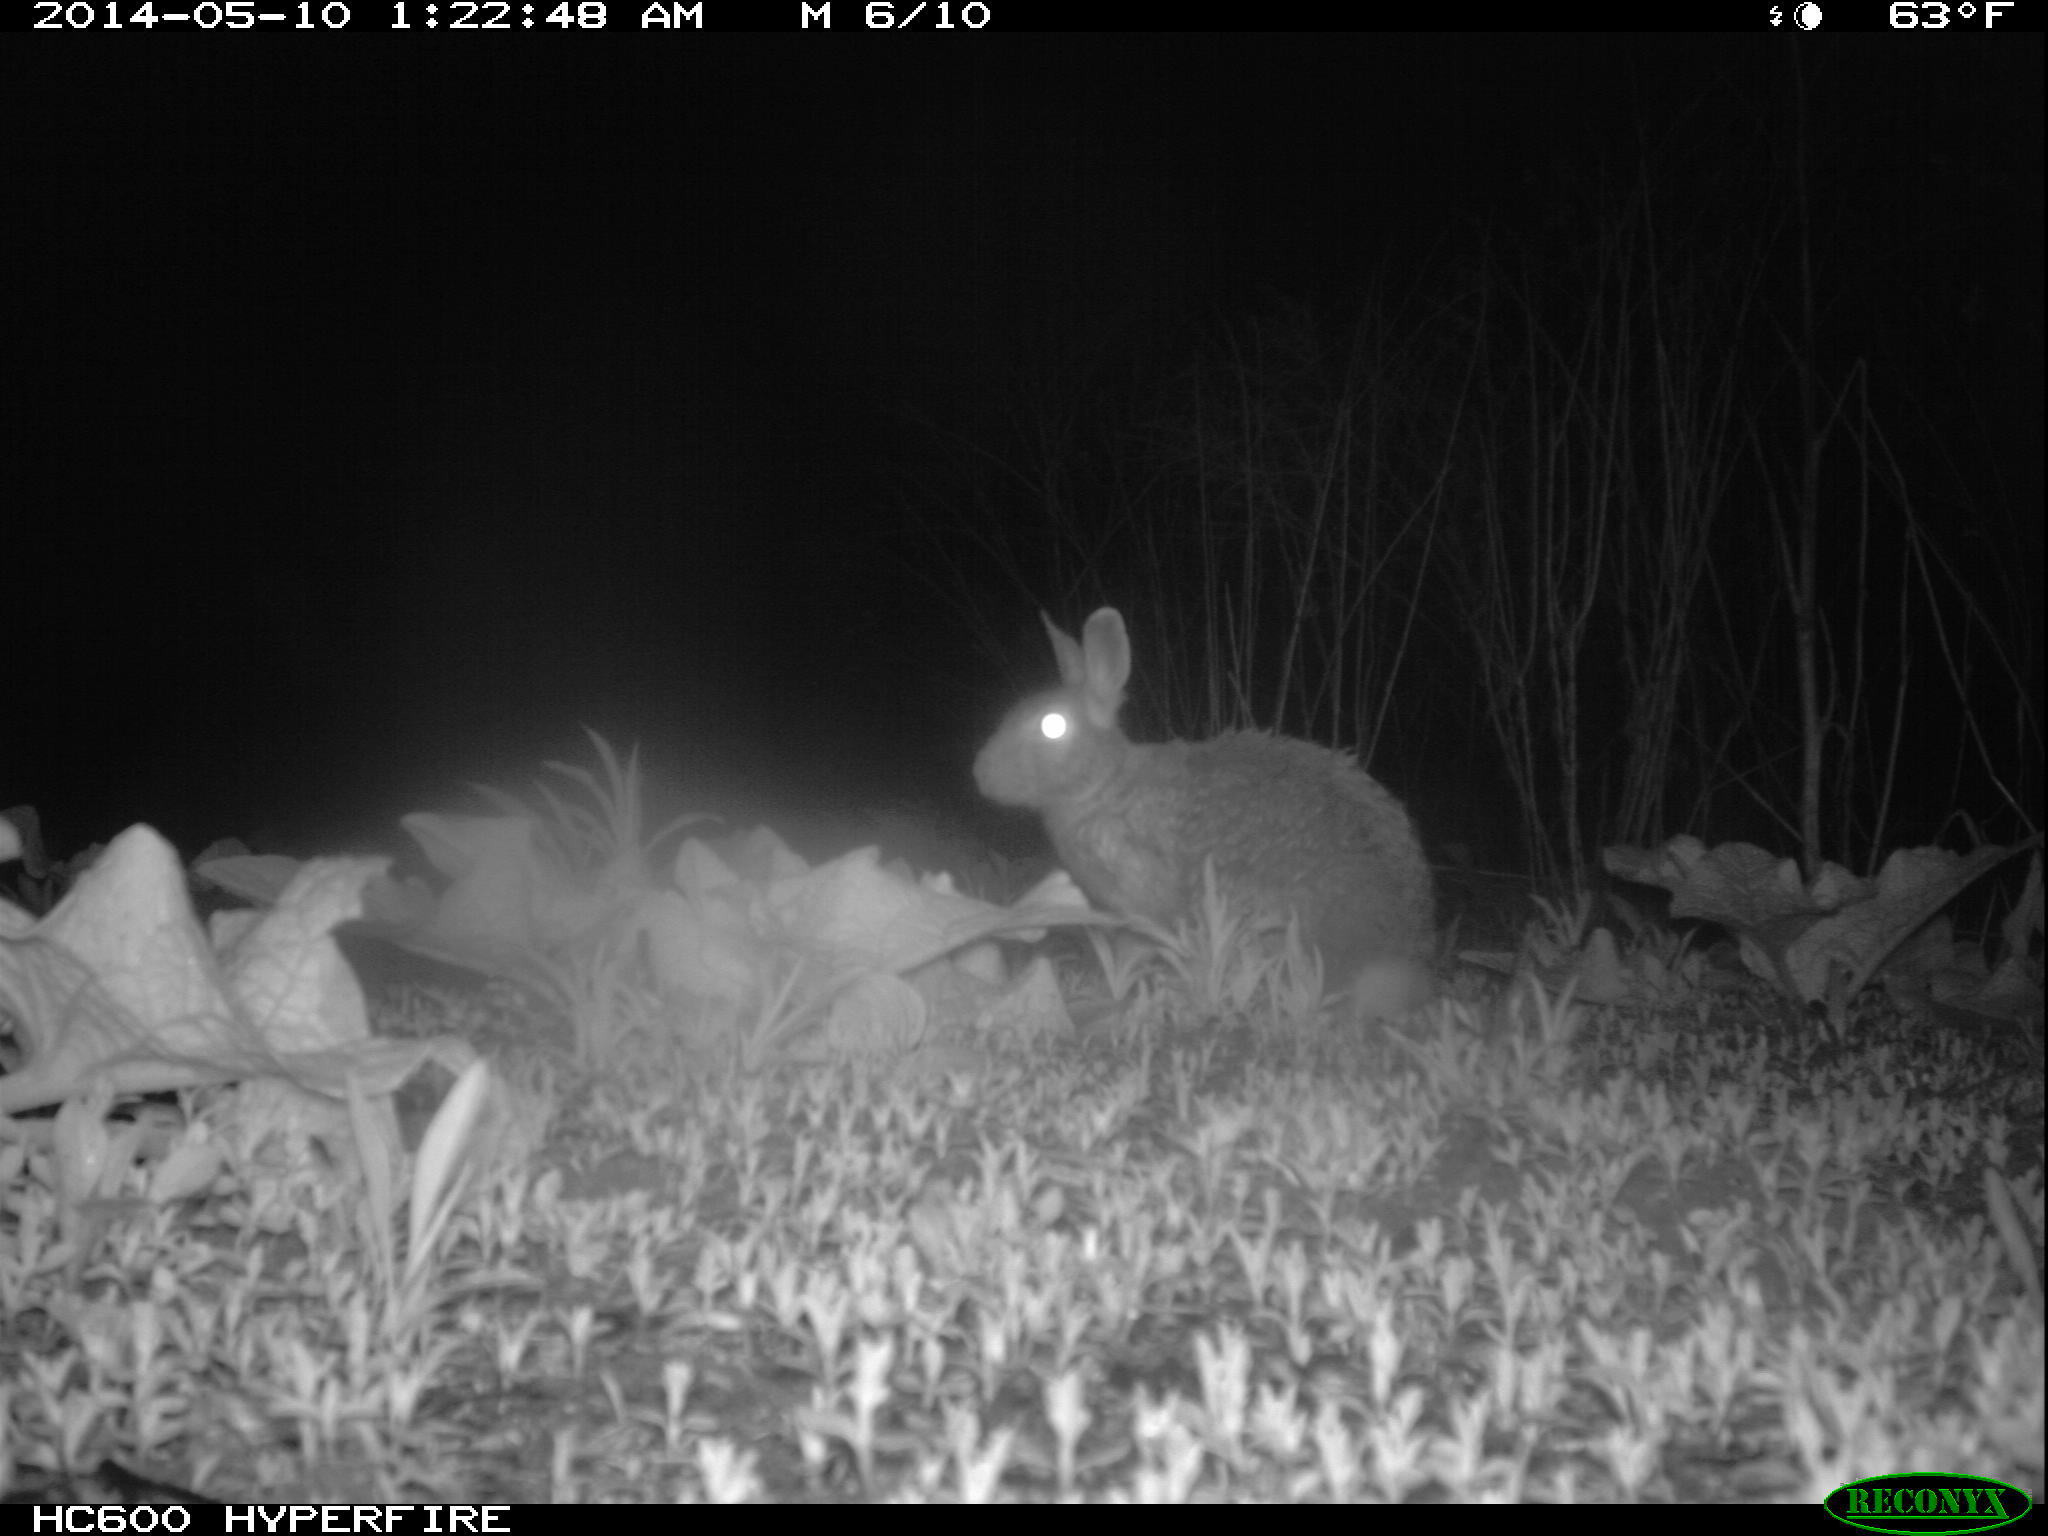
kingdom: Animalia
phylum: Chordata
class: Mammalia
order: Lagomorpha
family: Leporidae
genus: Sylvilagus
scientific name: Sylvilagus floridanus
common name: Eastern cottontail
